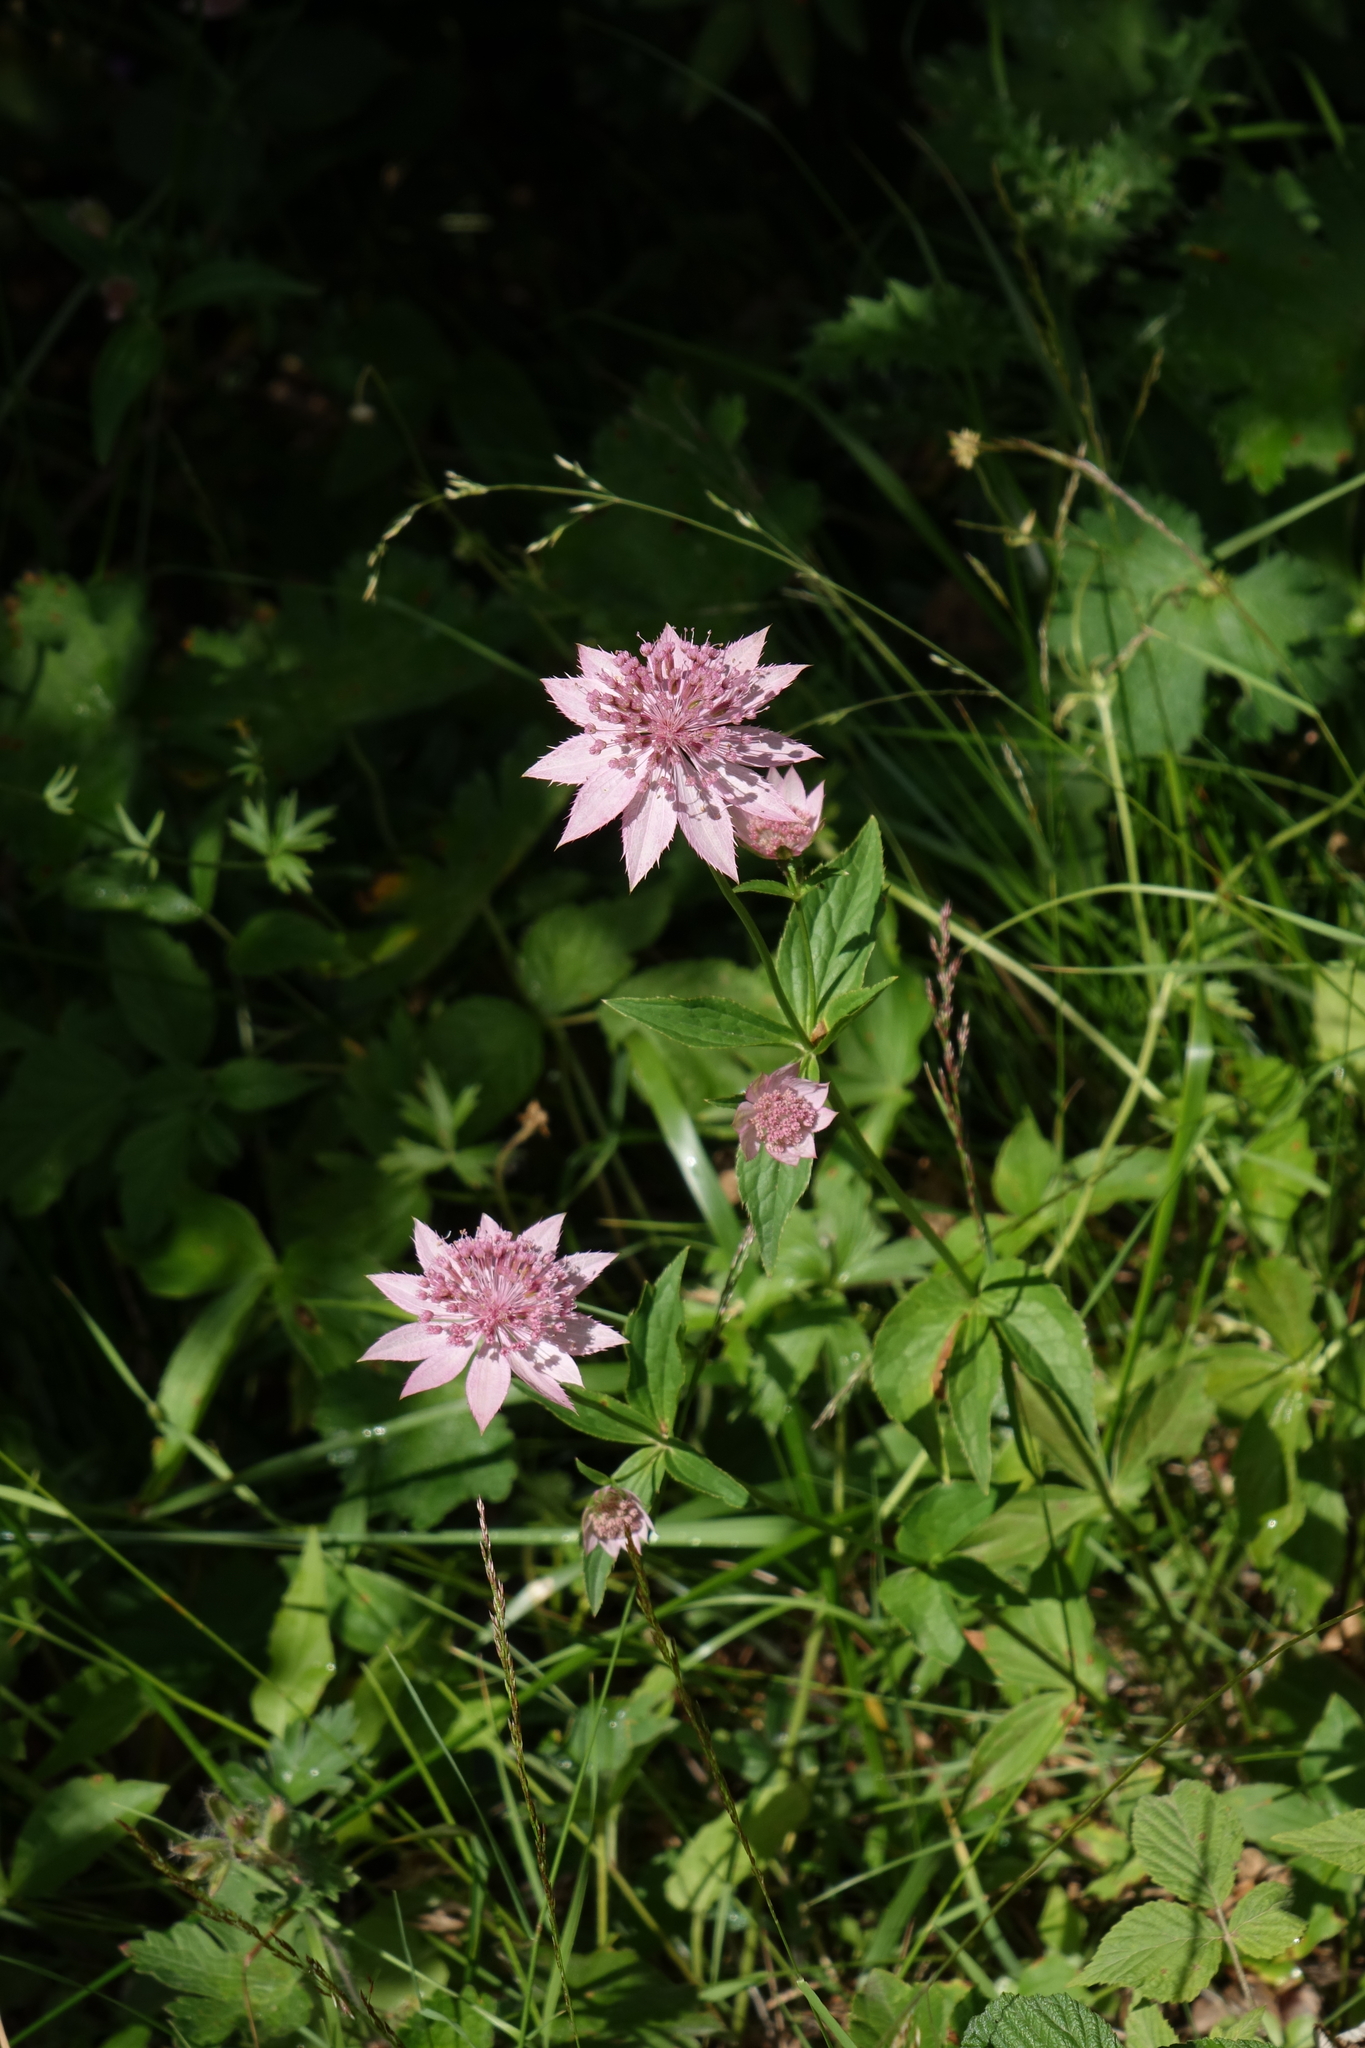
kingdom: Plantae
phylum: Tracheophyta
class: Magnoliopsida
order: Apiales
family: Apiaceae
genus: Astrantia
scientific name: Astrantia maxima
